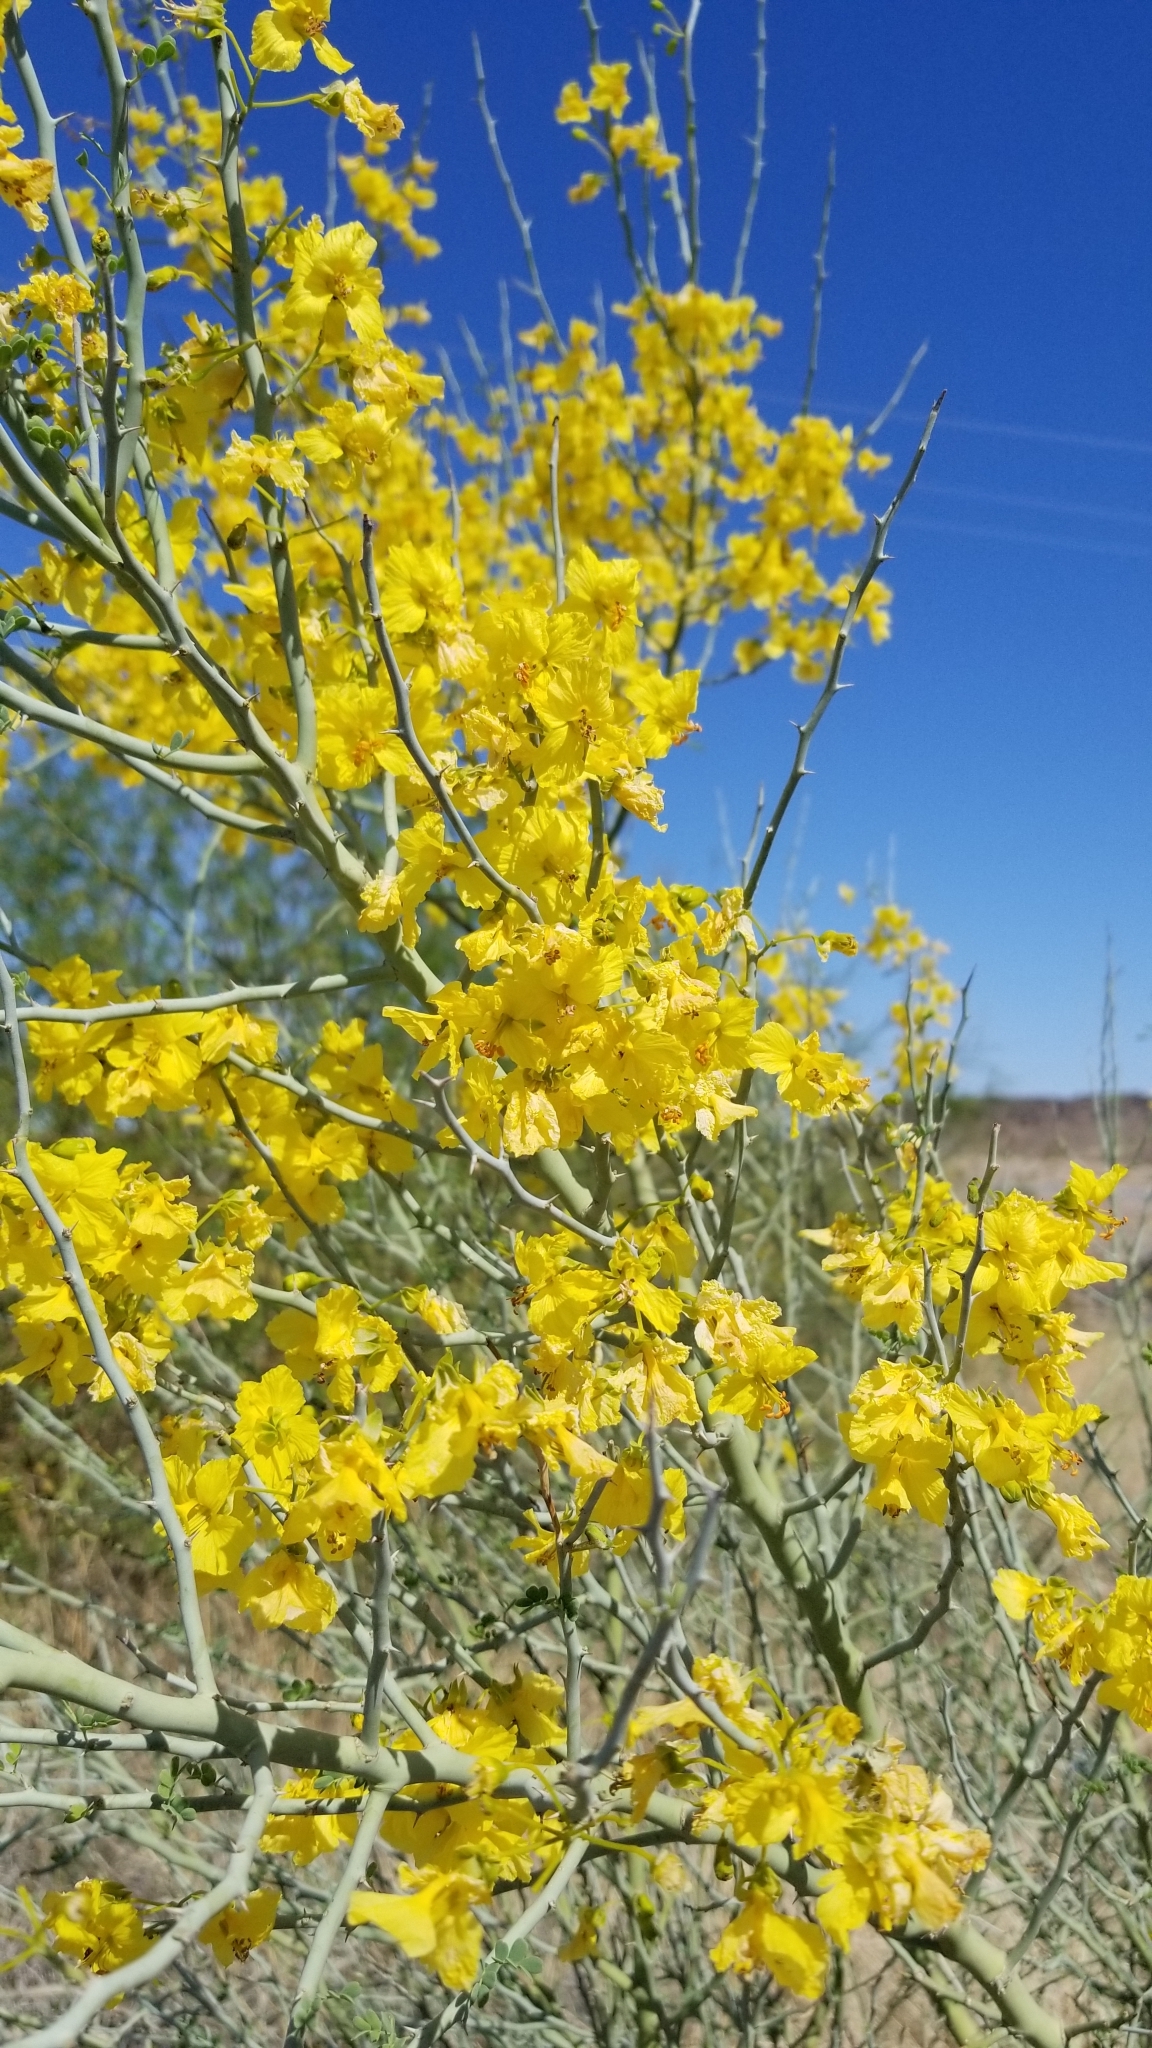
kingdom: Plantae
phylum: Tracheophyta
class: Magnoliopsida
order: Fabales
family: Fabaceae
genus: Parkinsonia
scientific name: Parkinsonia florida
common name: Blue paloverde
